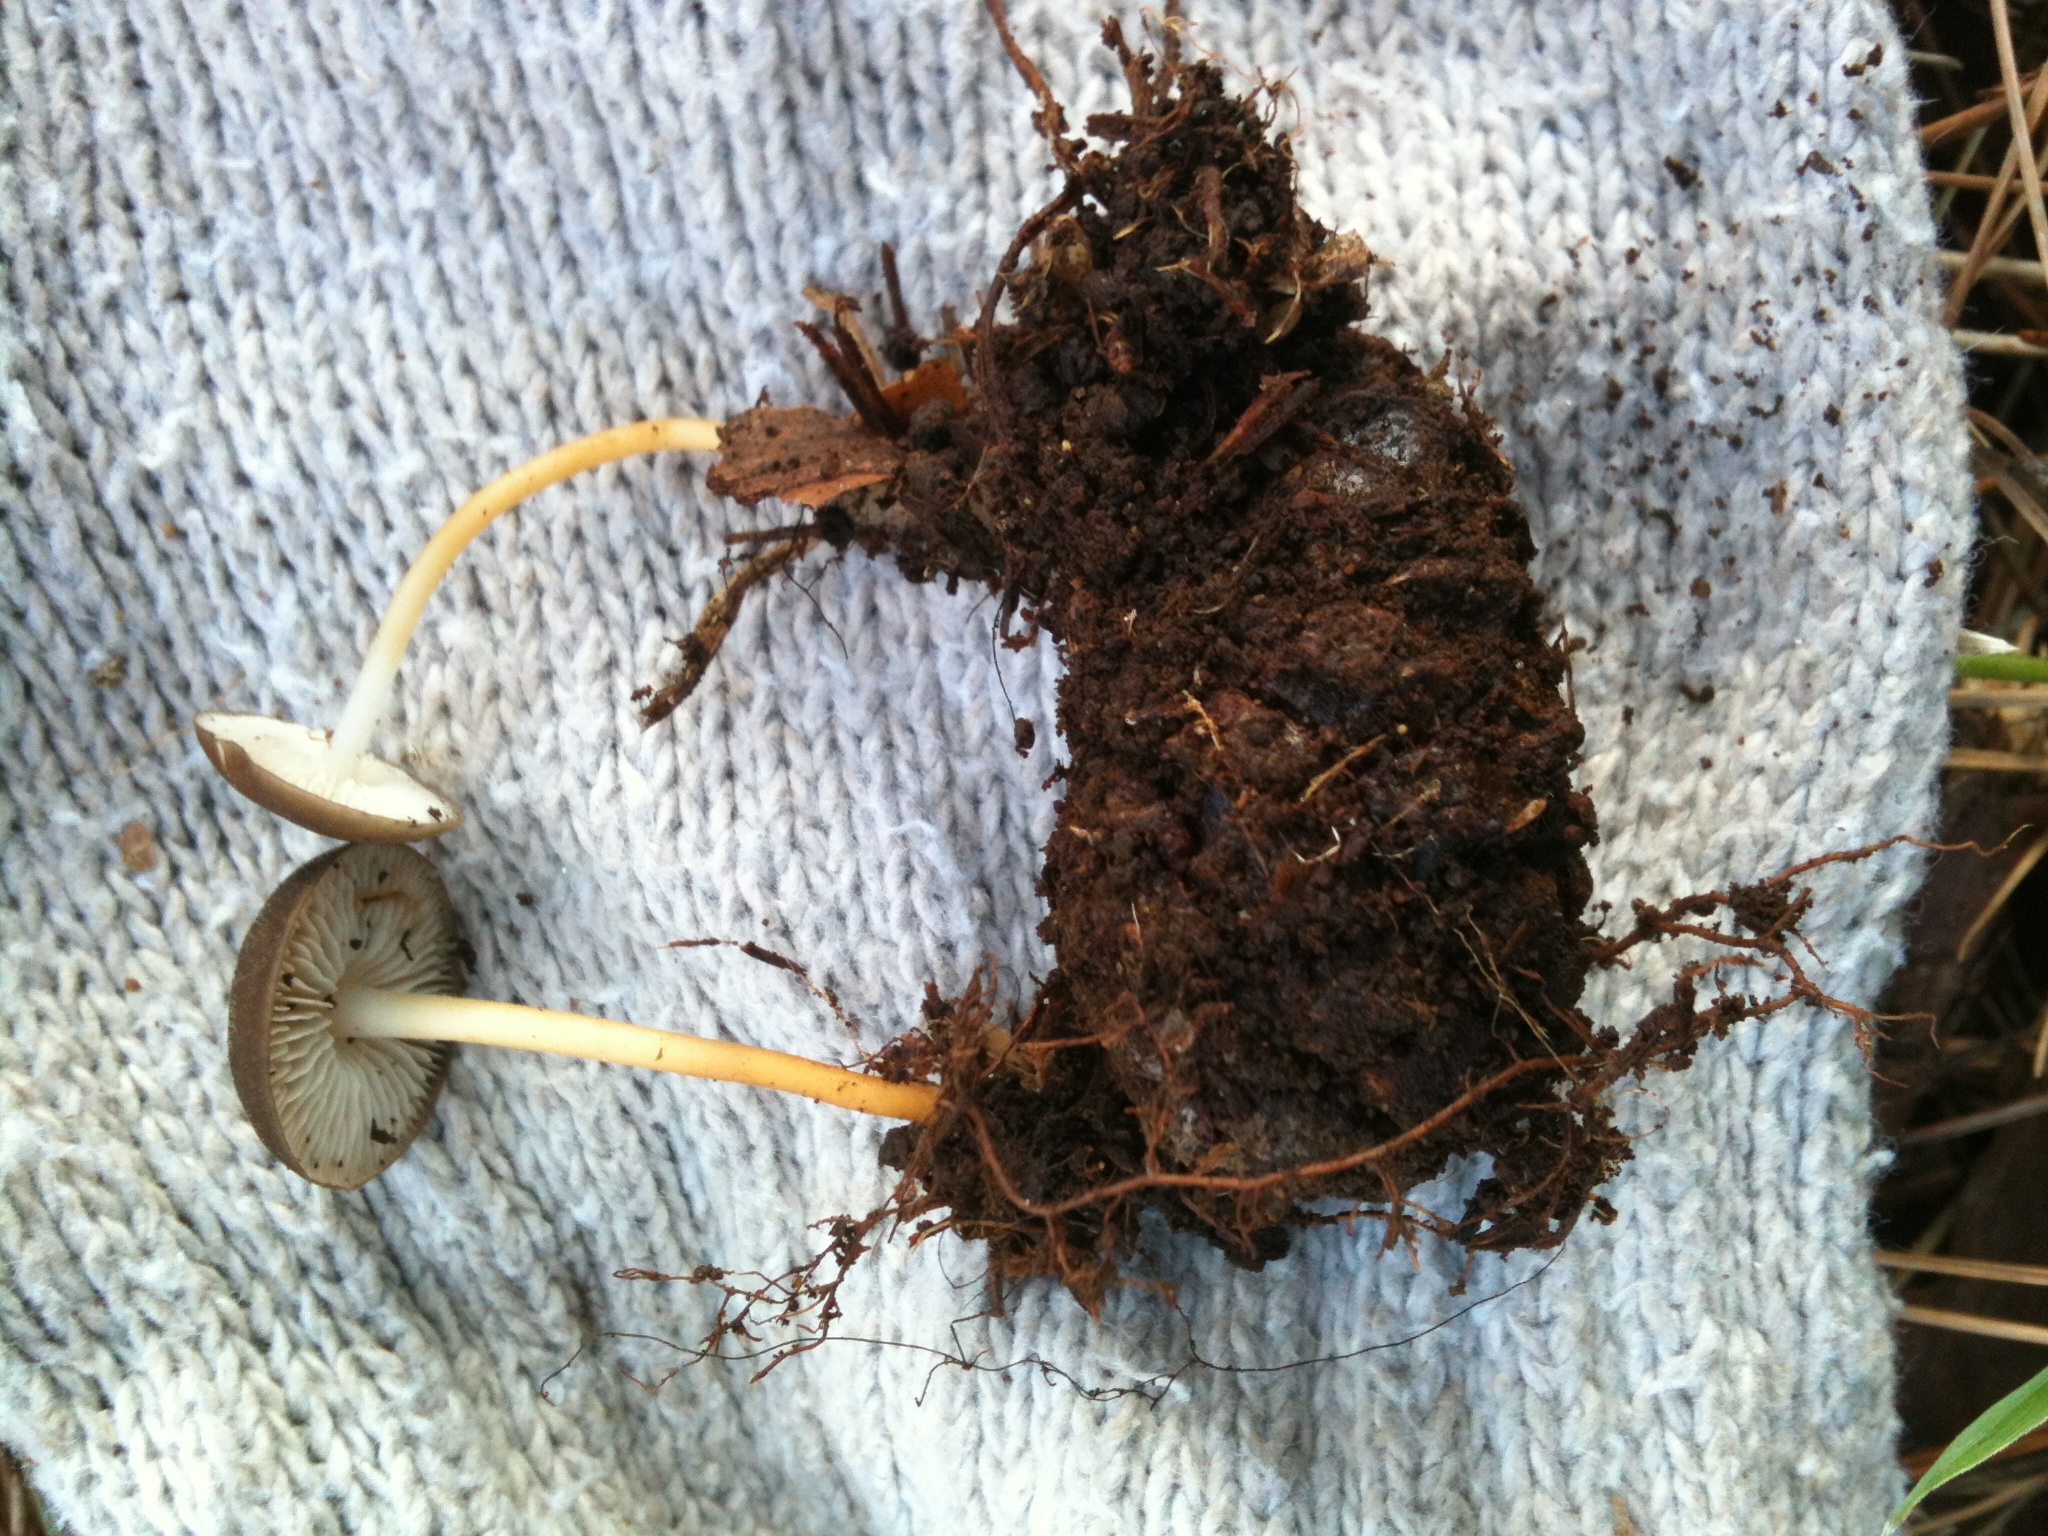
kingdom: Fungi
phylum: Basidiomycota
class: Agaricomycetes
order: Agaricales
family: Physalacriaceae
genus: Strobilurus
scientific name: Strobilurus stephanocystis
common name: Russian conecap
